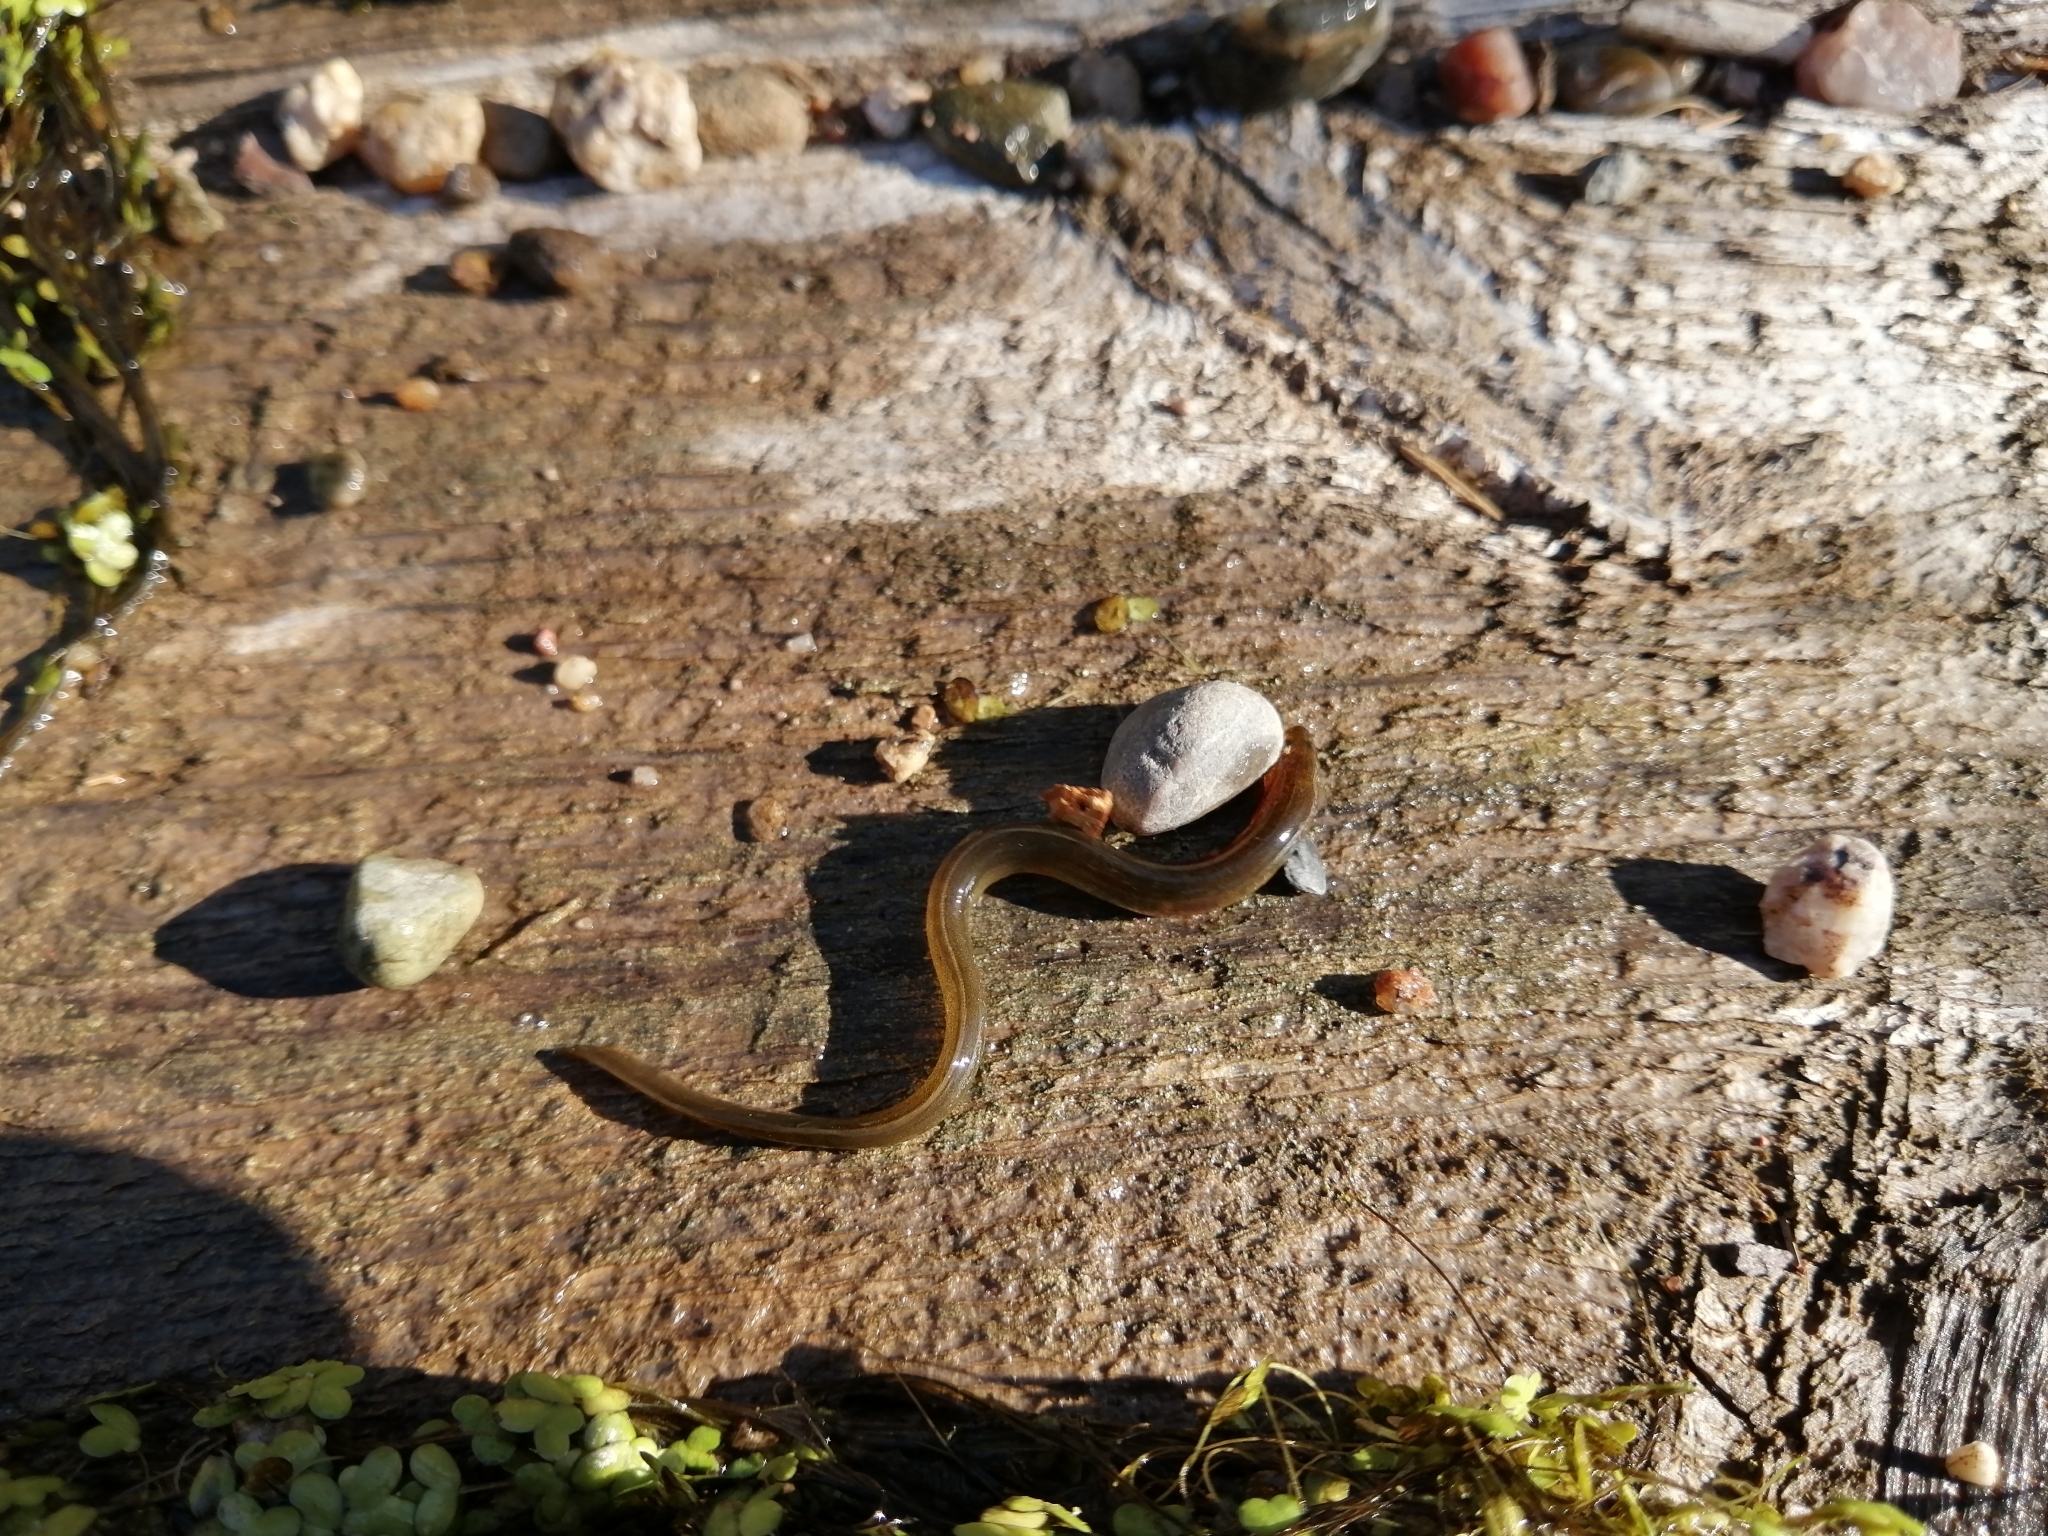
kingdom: Animalia
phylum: Chordata
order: Anguilliformes
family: Anguillidae
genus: Anguilla
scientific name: Anguilla rostrata
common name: American eel
